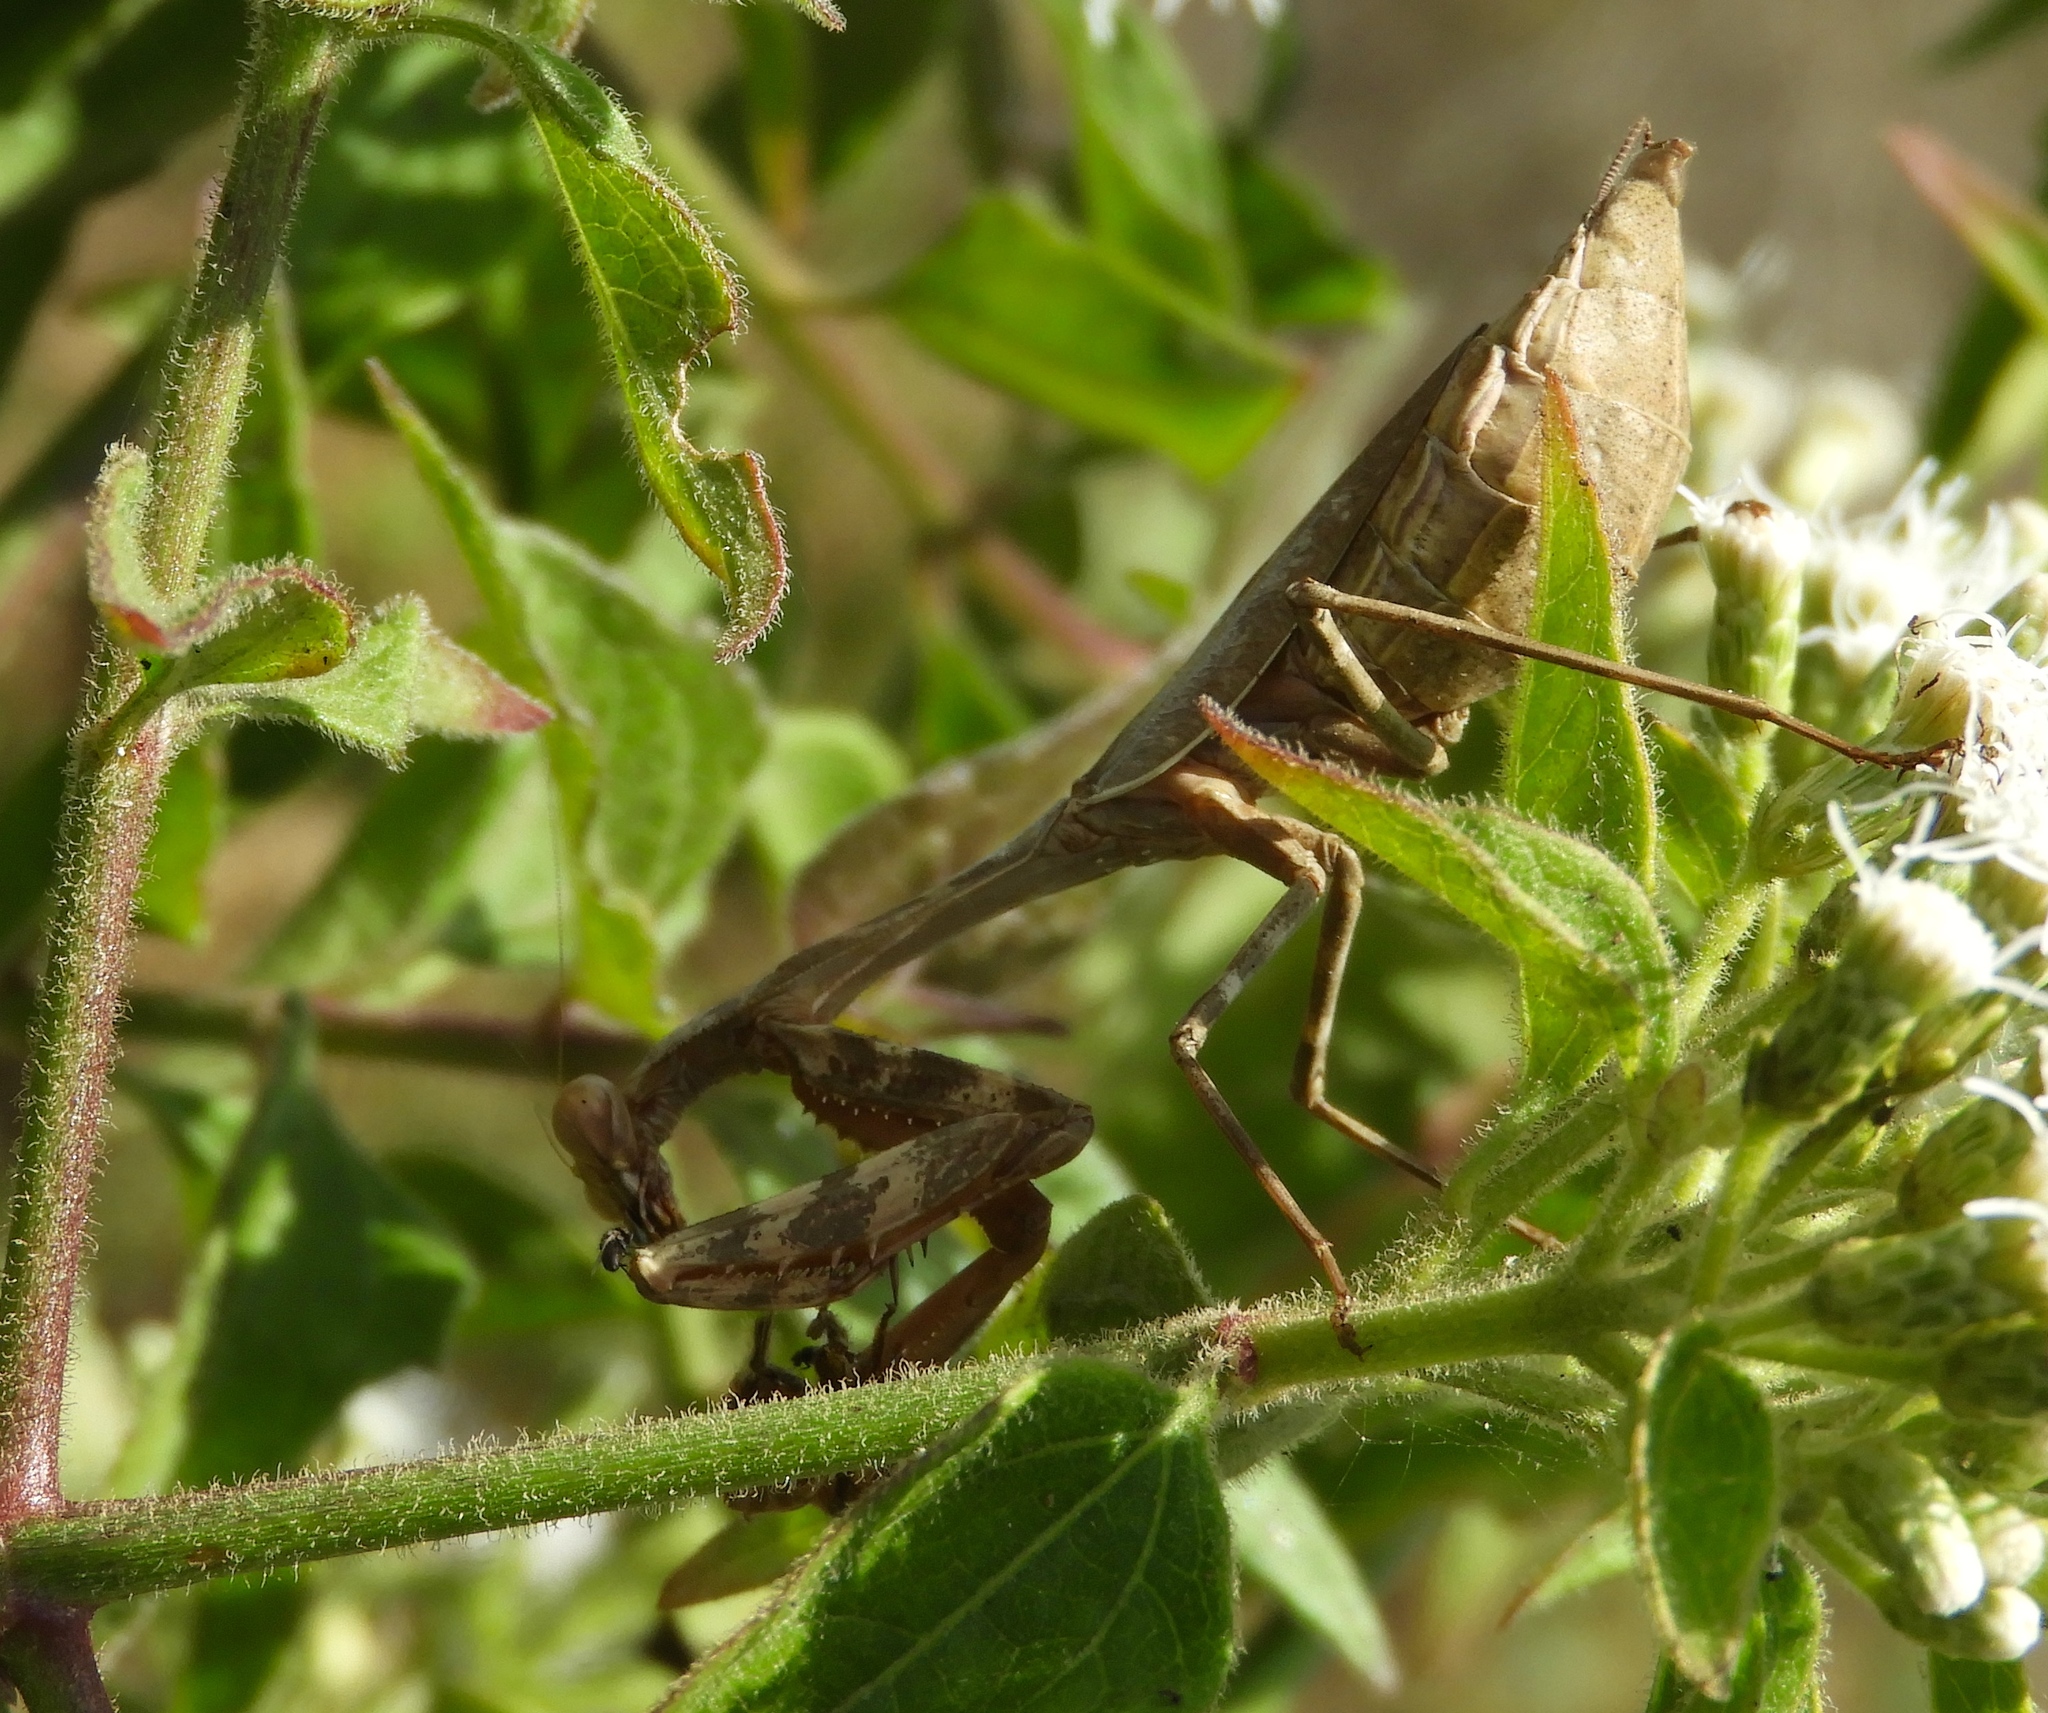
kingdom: Animalia
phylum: Arthropoda
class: Insecta
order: Mantodea
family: Mantidae
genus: Stagmomantis
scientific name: Stagmomantis carolina
